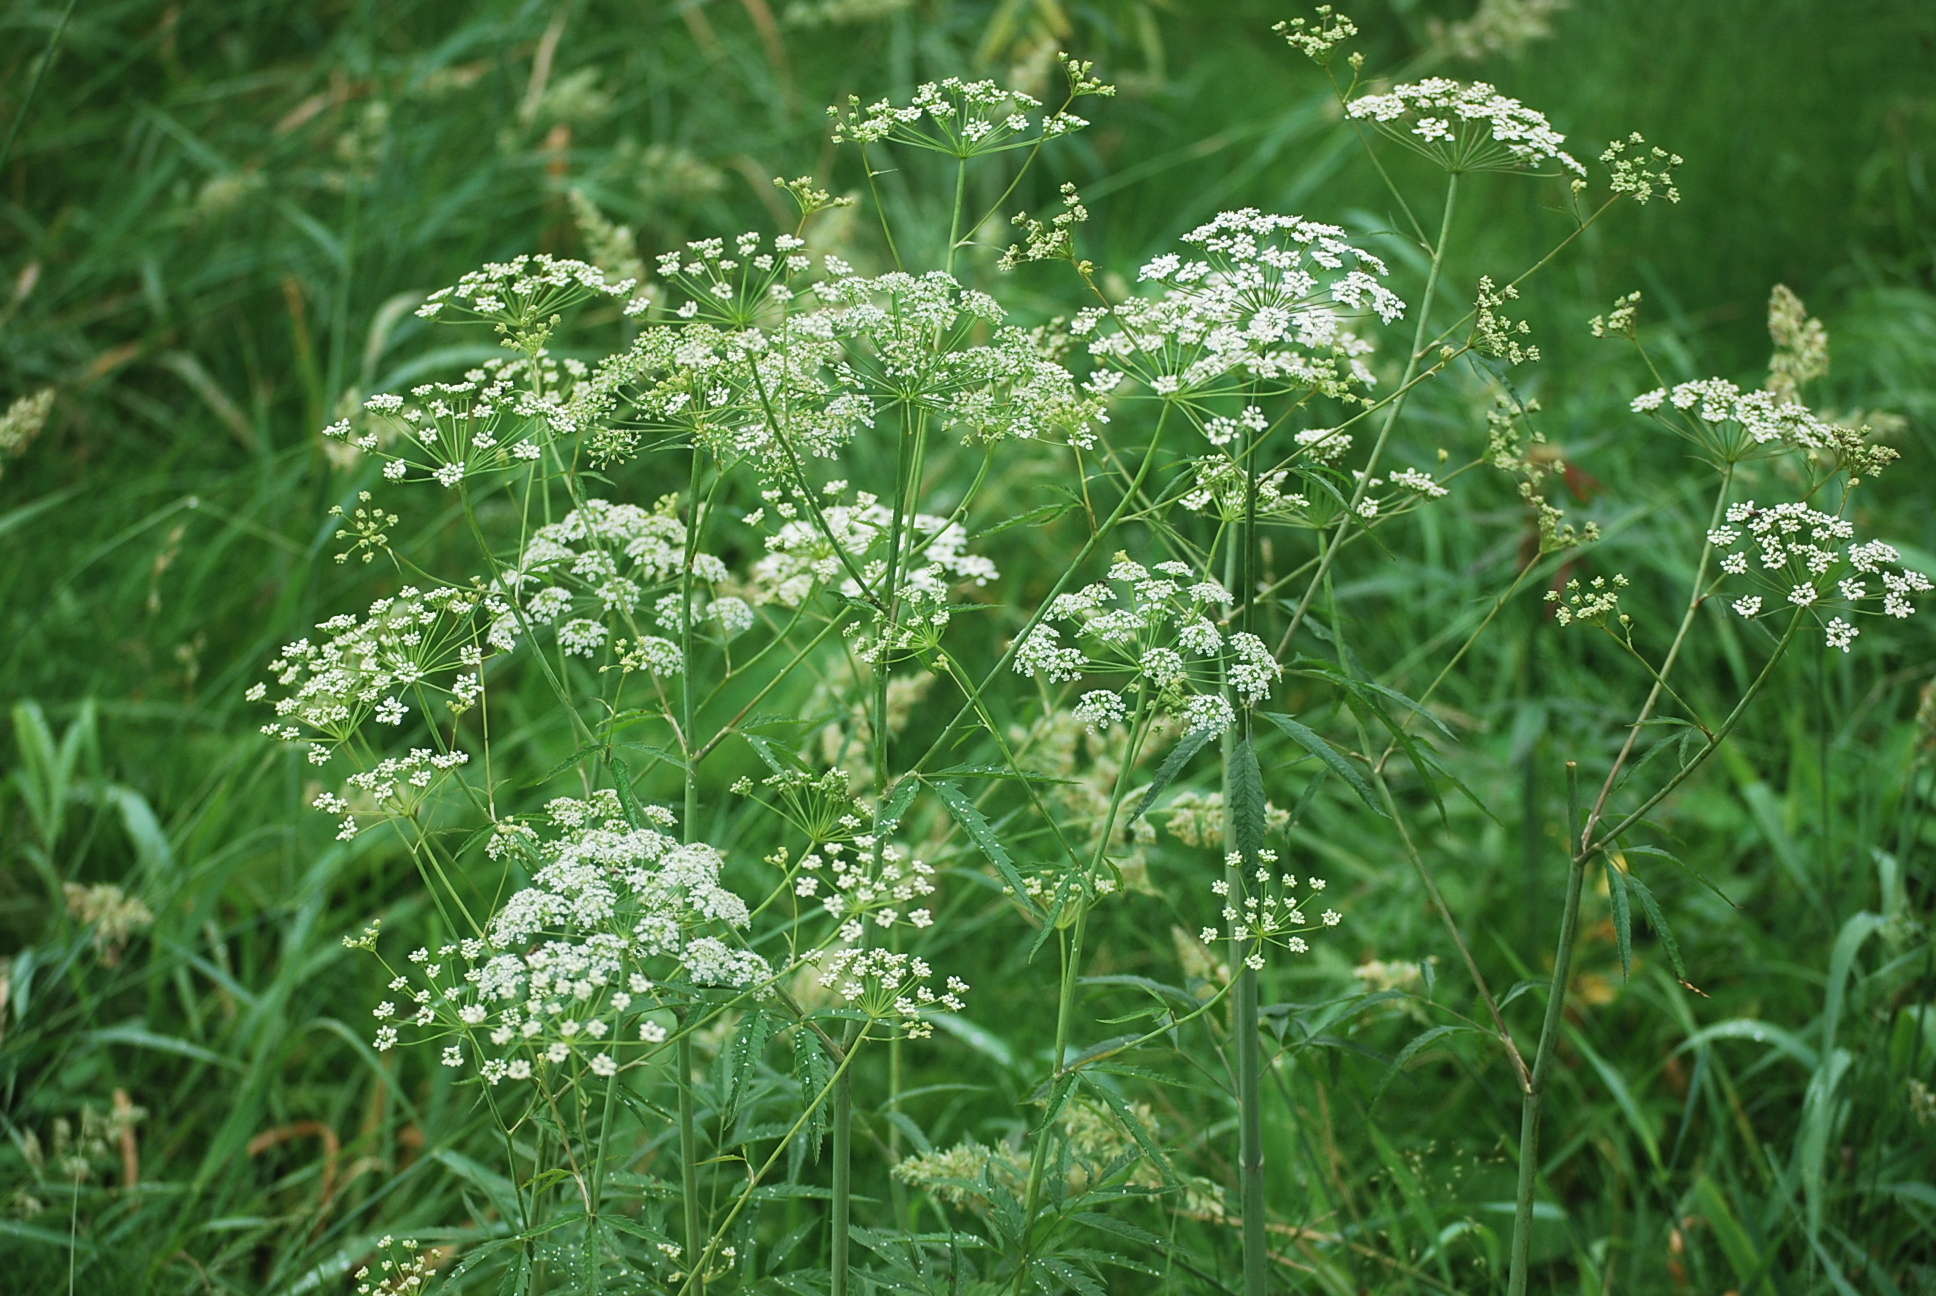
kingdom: Plantae
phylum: Tracheophyta
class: Magnoliopsida
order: Apiales
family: Apiaceae
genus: Cicuta
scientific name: Cicuta maculata
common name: Spotted cowbane
